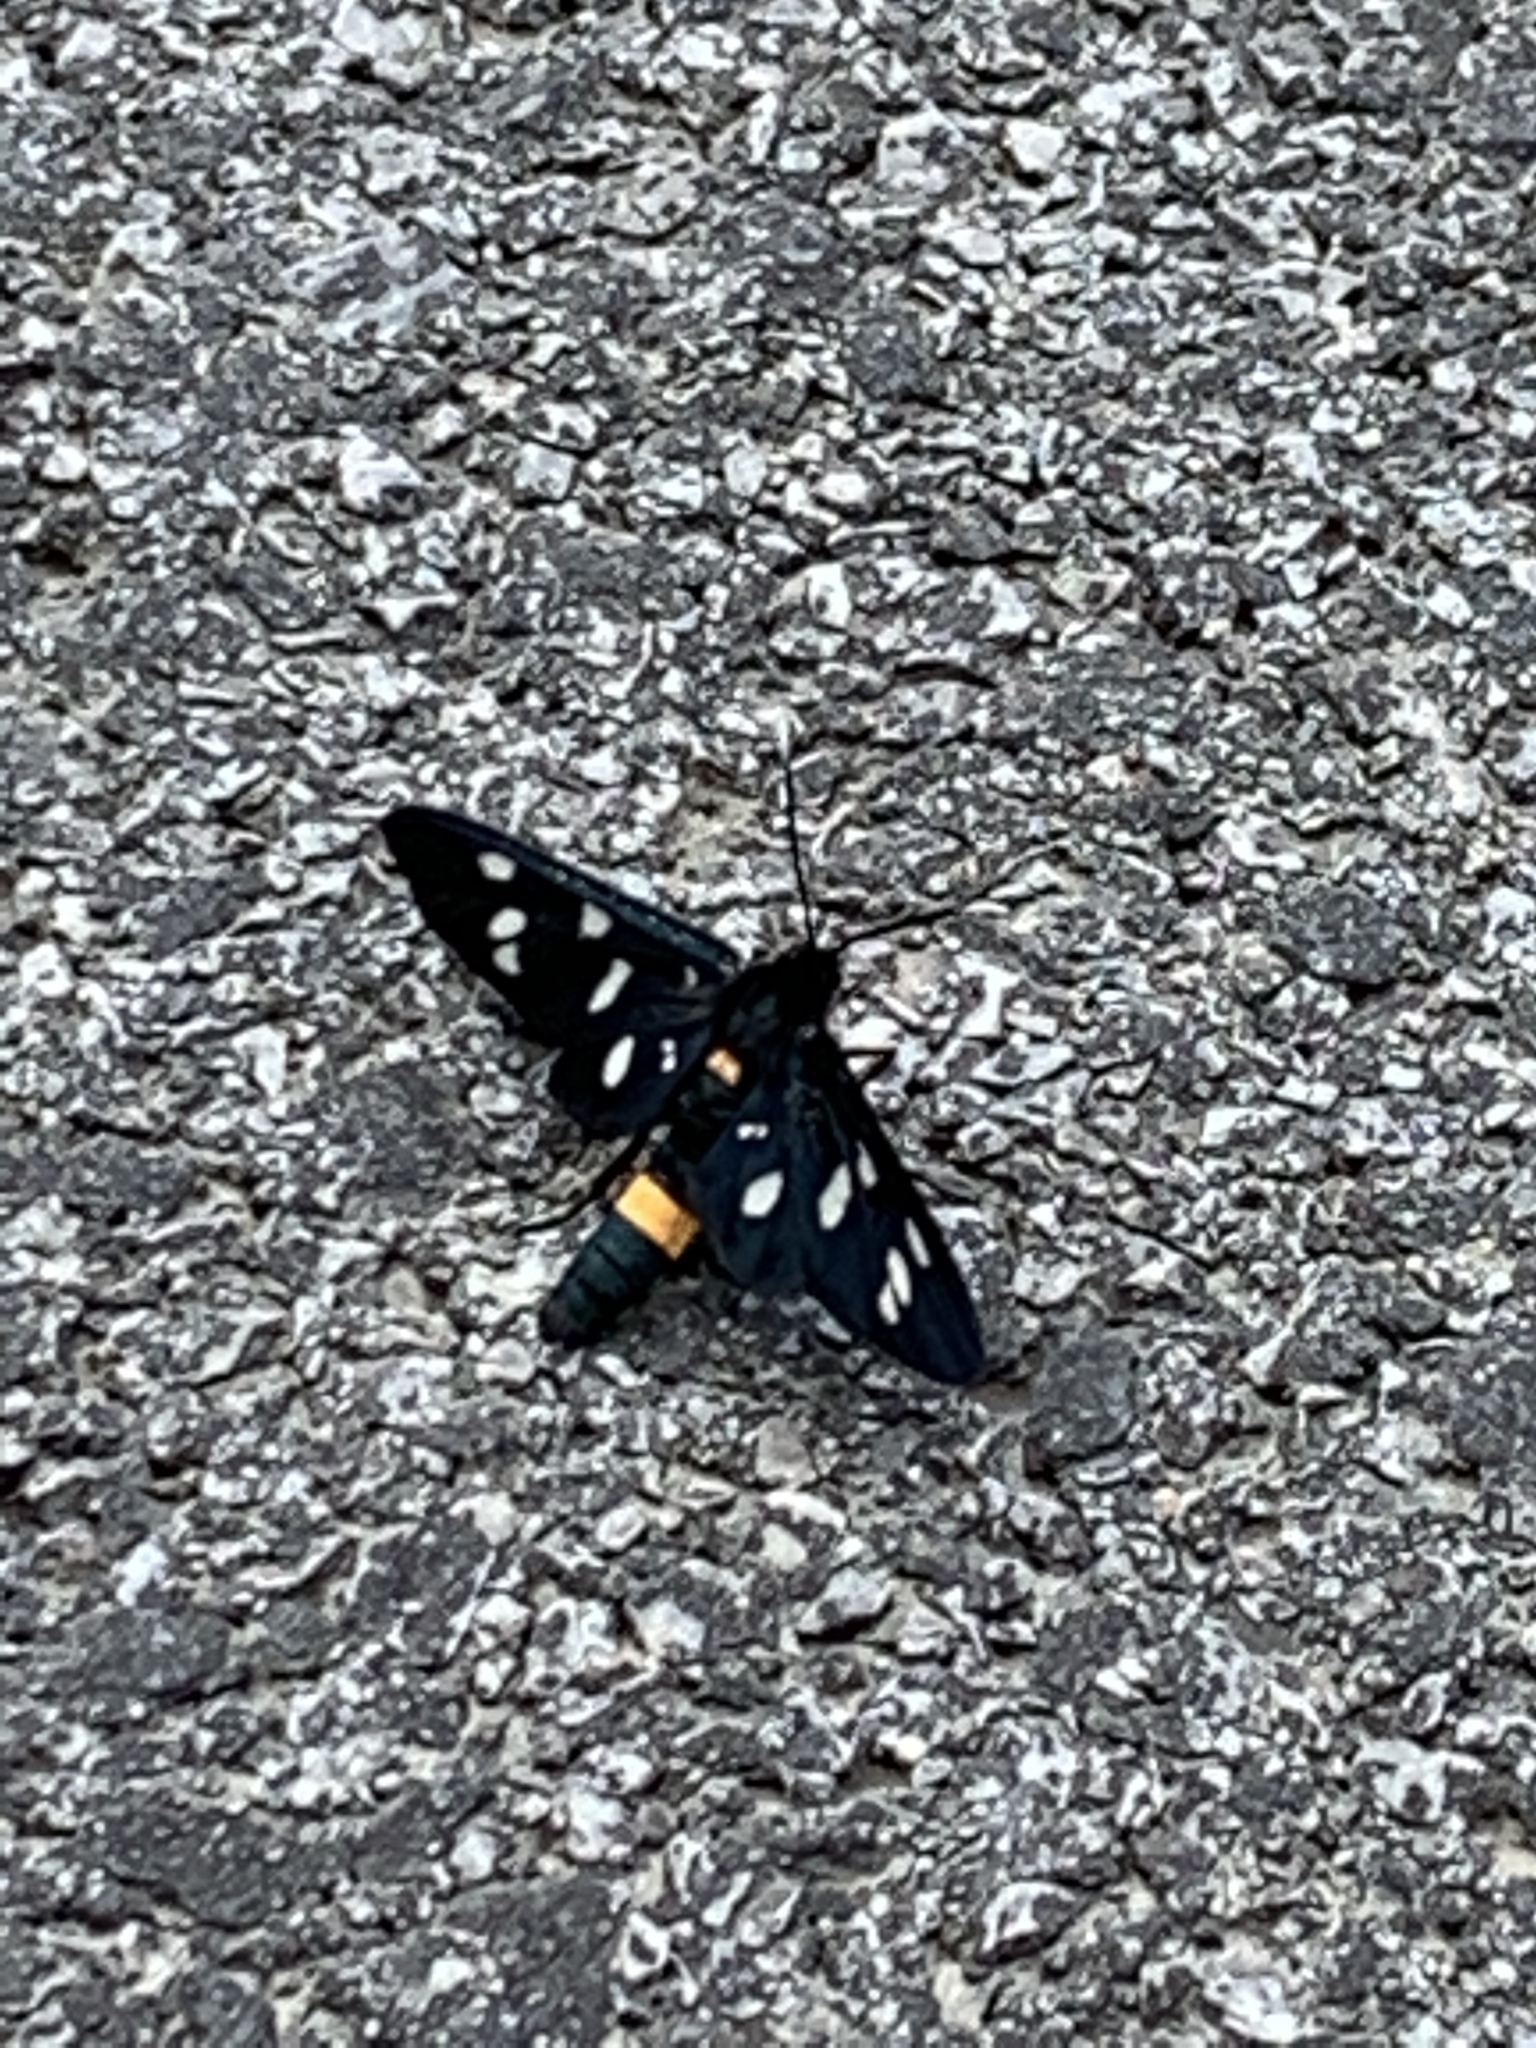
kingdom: Animalia
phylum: Arthropoda
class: Insecta
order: Lepidoptera
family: Erebidae
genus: Amata
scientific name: Amata phegea
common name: Nine-spotted
